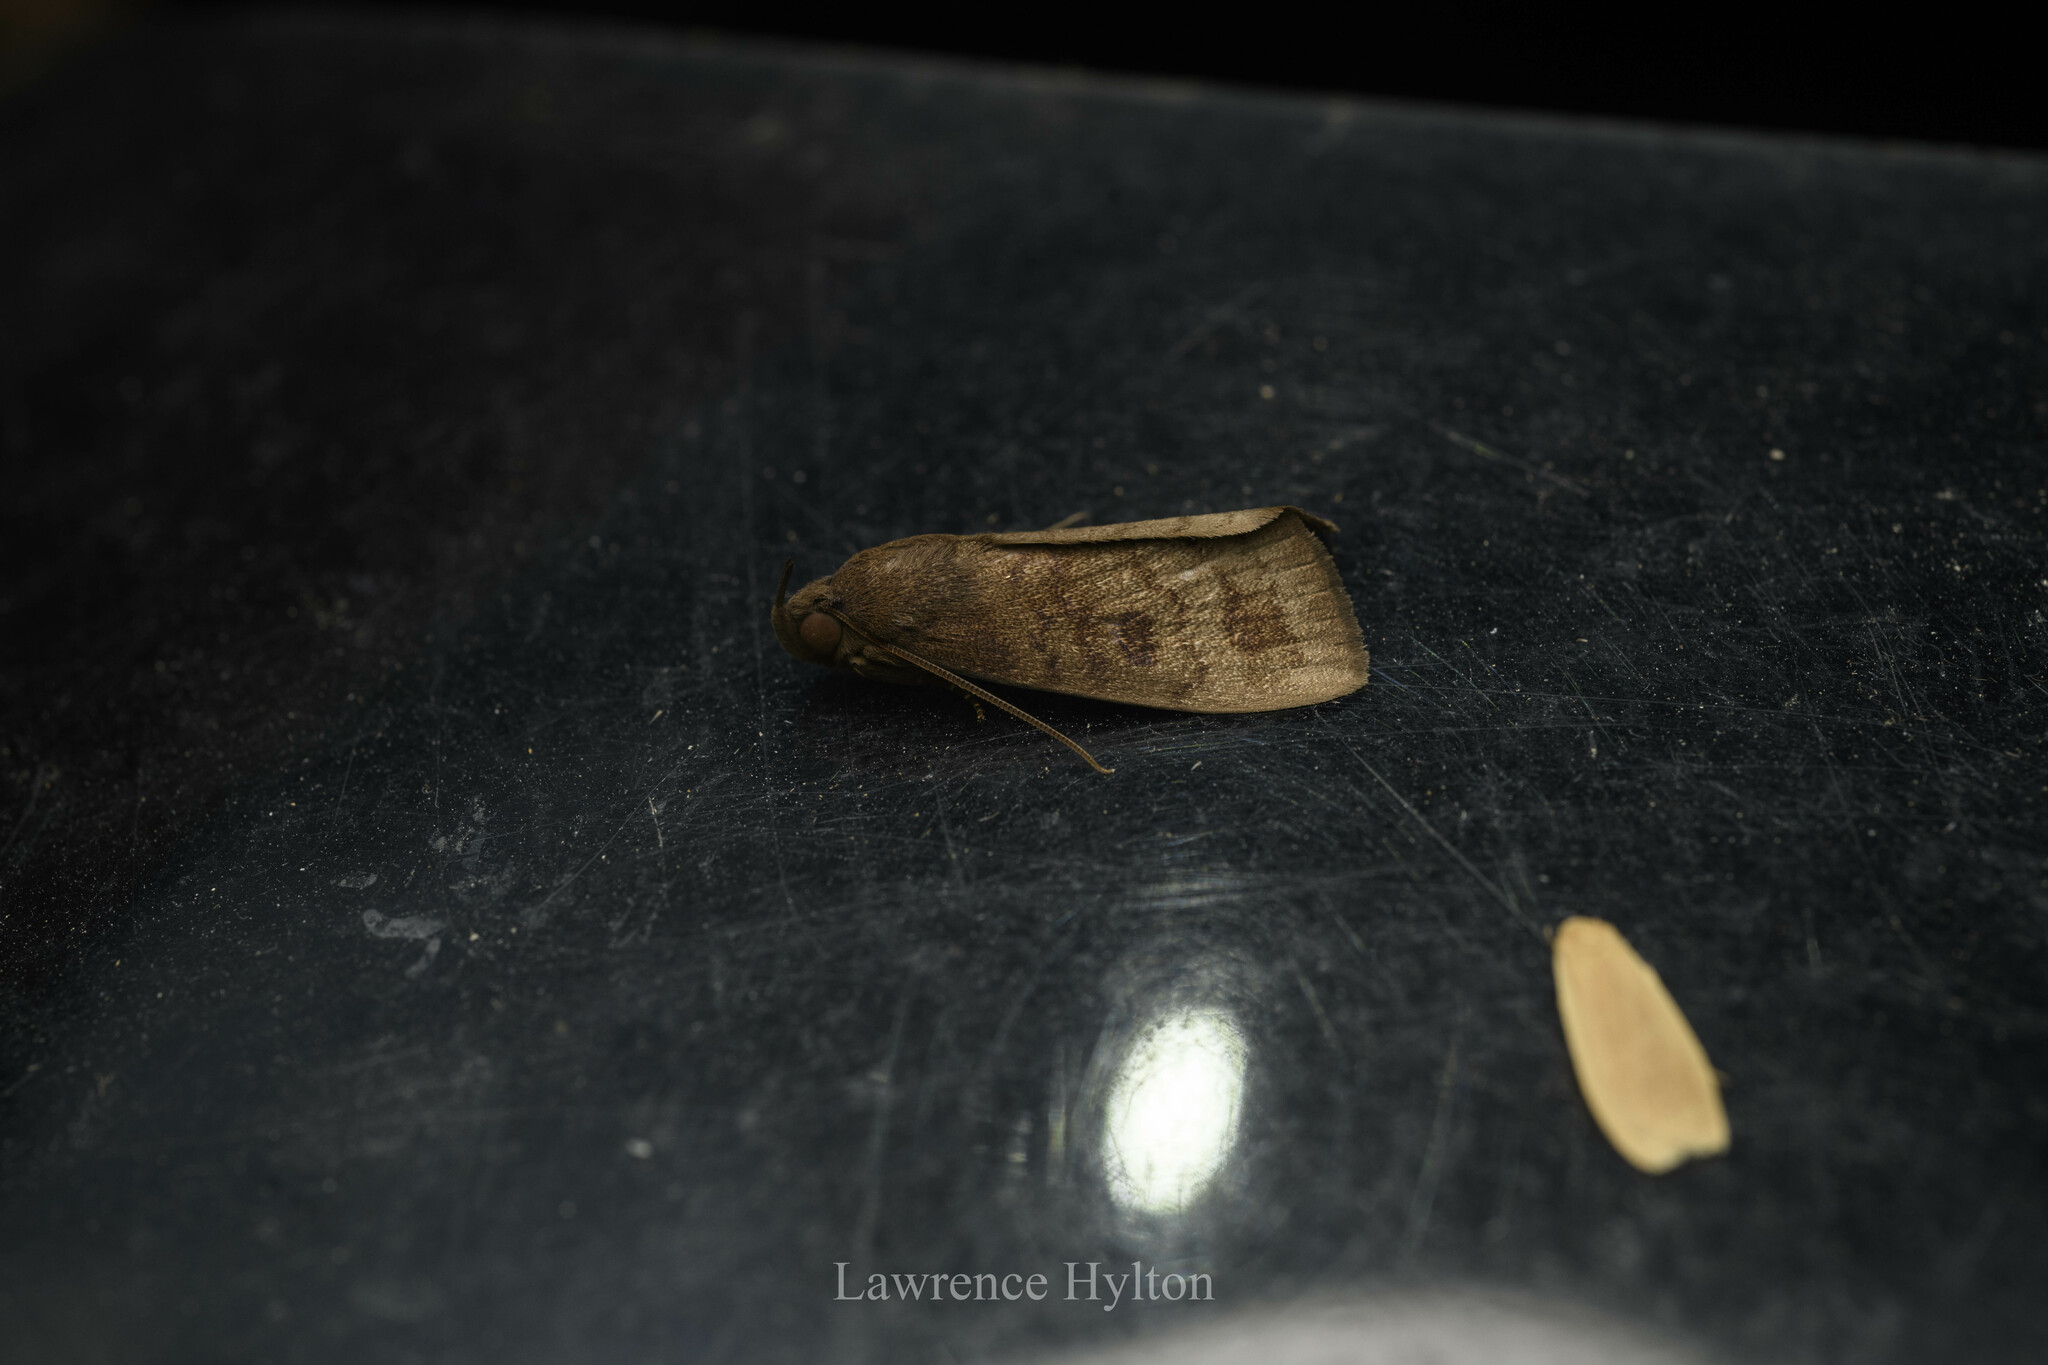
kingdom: Animalia
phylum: Arthropoda
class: Insecta
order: Lepidoptera
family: Erebidae
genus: Avitta
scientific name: Avitta fasciosa
